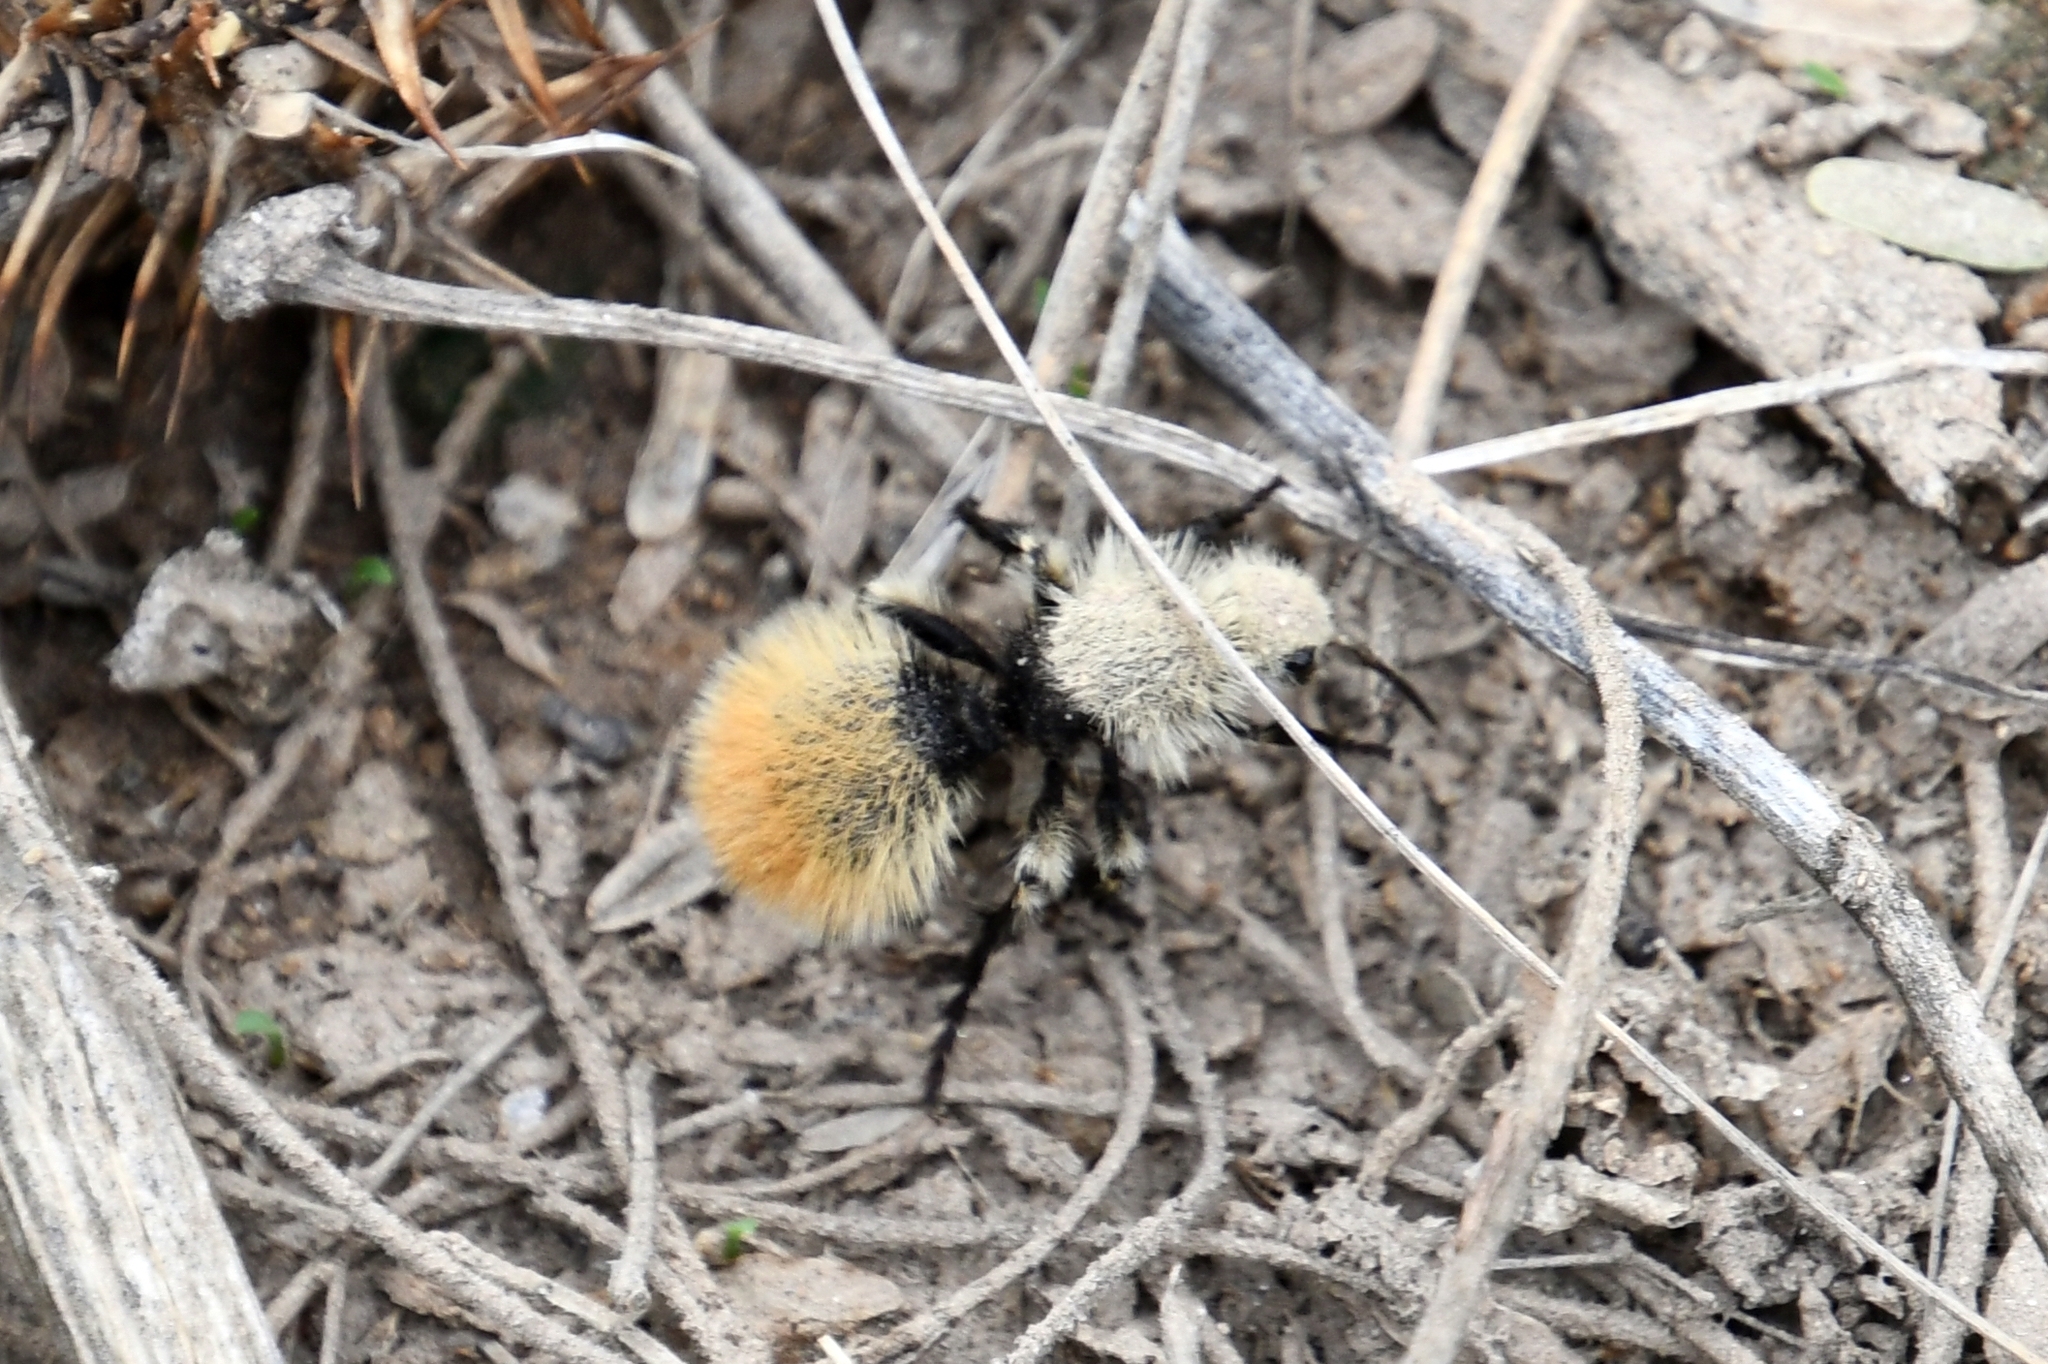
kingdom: Animalia
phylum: Arthropoda
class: Insecta
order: Hymenoptera
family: Mutillidae
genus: Dasymutilla
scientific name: Dasymutilla
